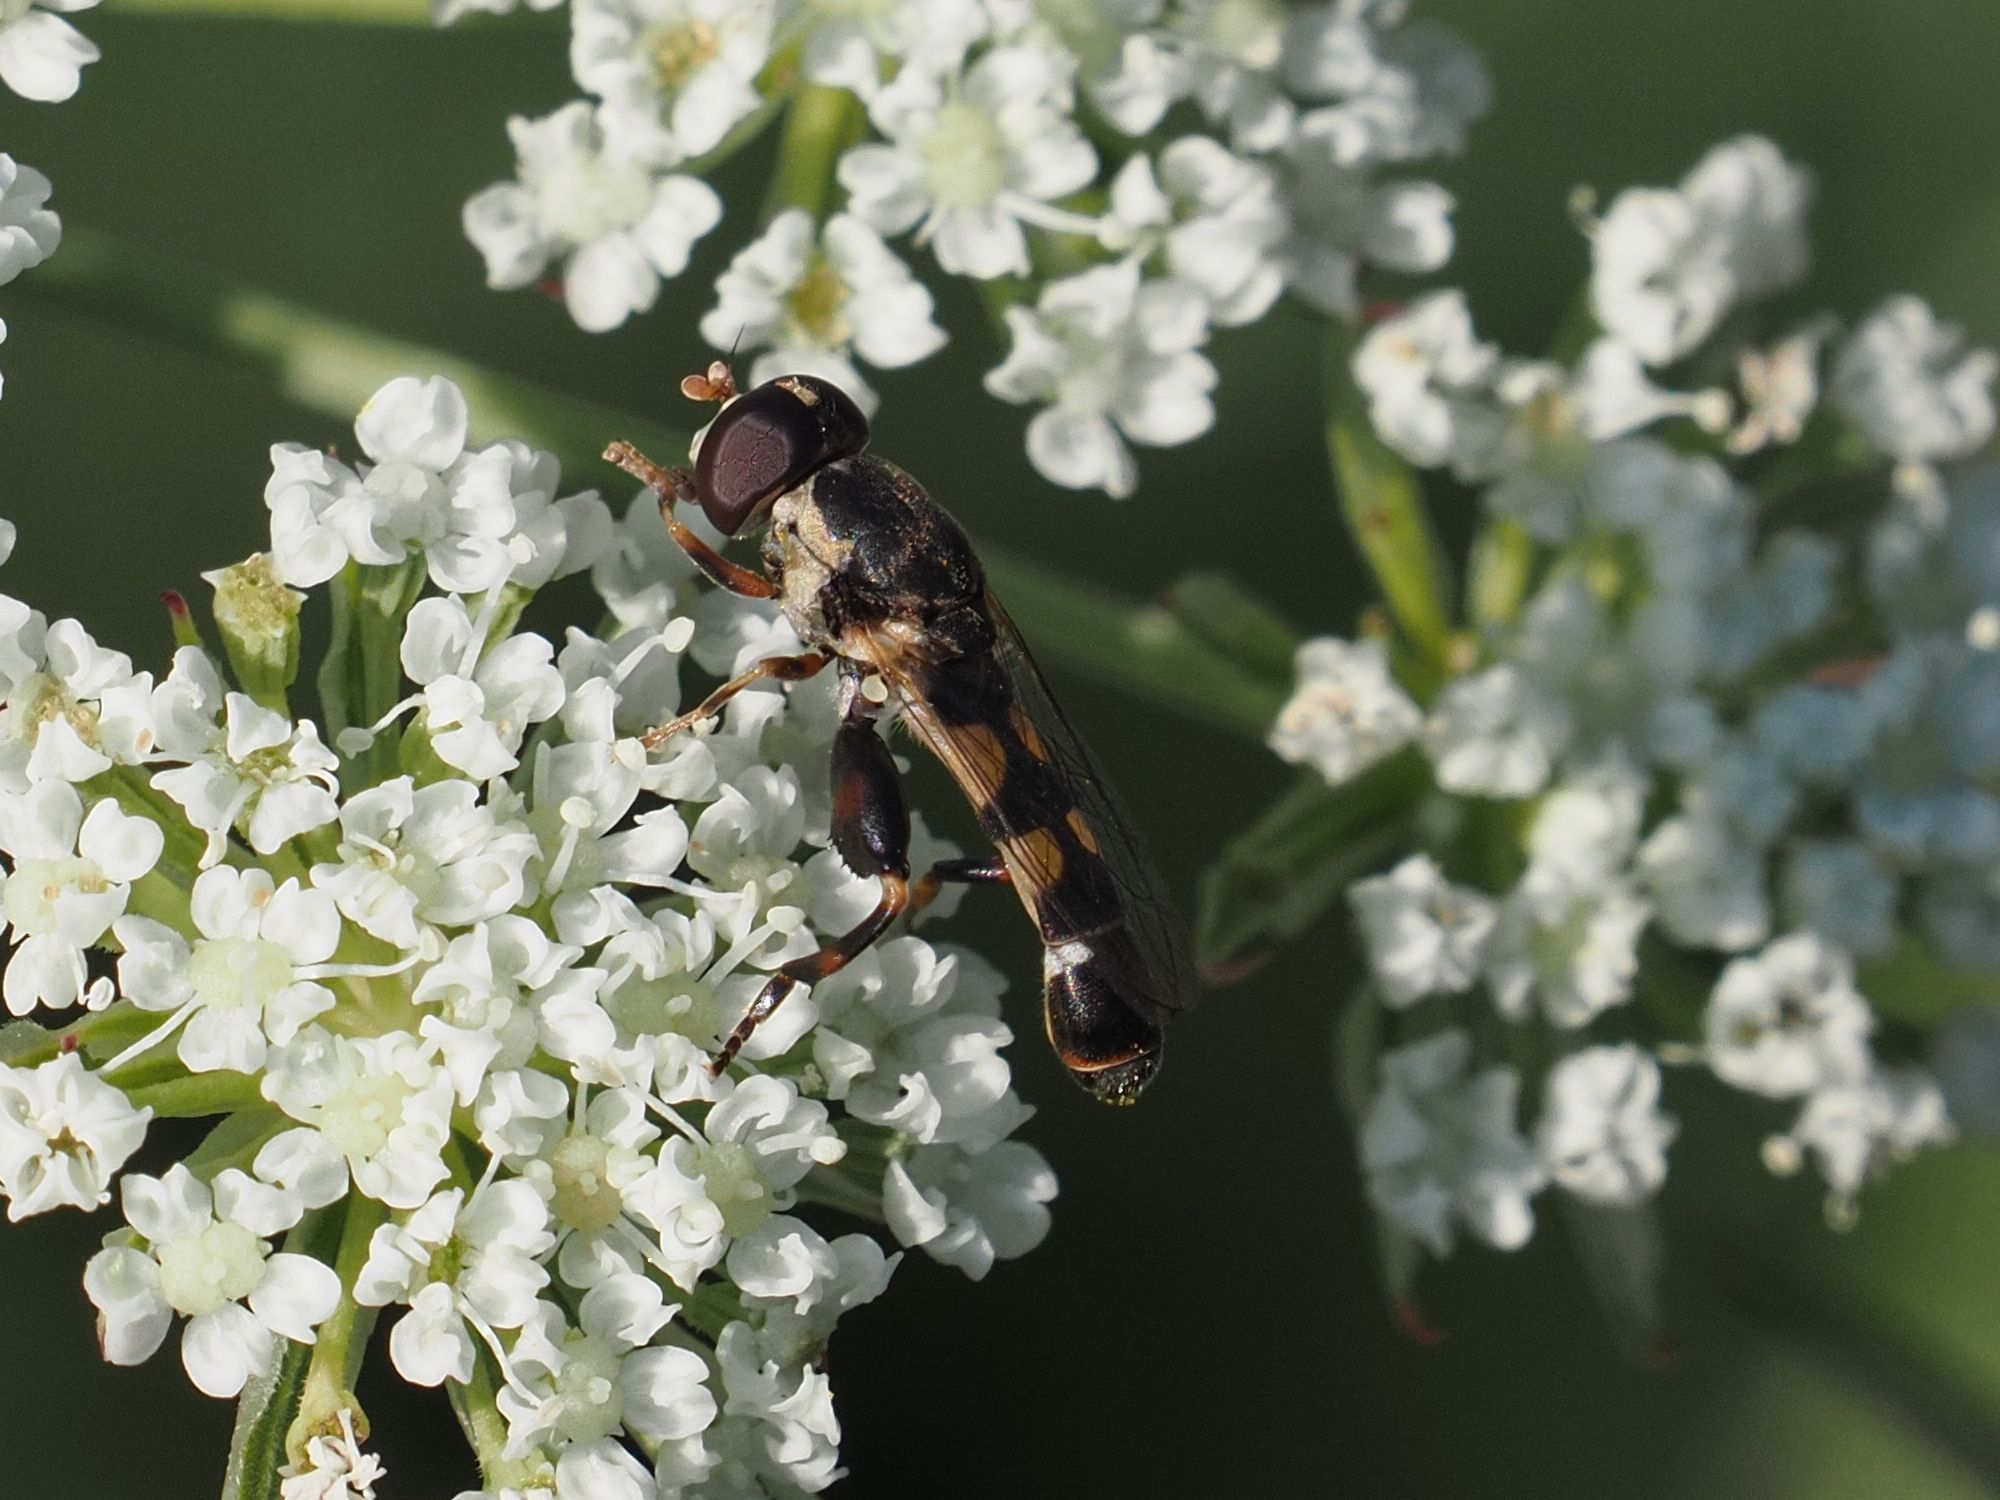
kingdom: Animalia
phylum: Arthropoda
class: Insecta
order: Diptera
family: Syrphidae
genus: Syritta
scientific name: Syritta pipiens
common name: Hover fly
